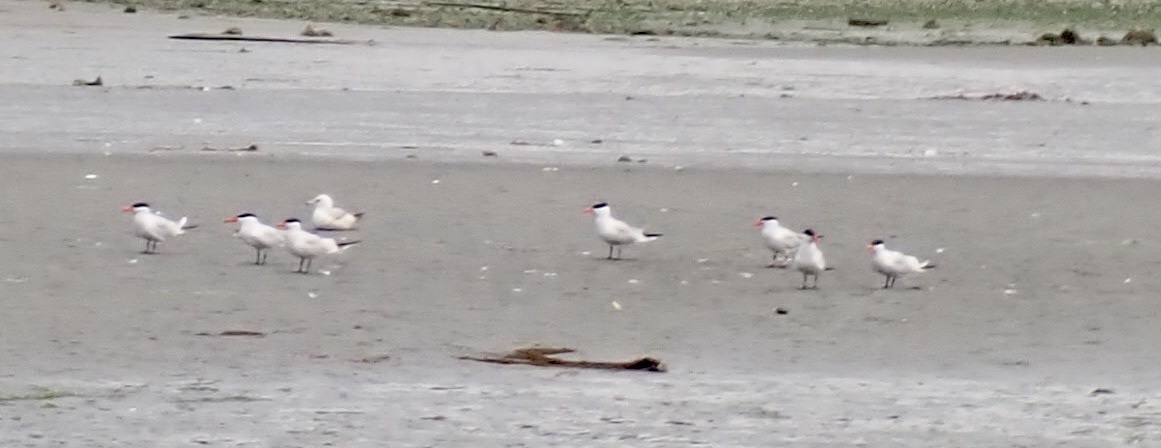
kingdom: Animalia
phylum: Chordata
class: Aves
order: Charadriiformes
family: Laridae
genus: Hydroprogne
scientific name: Hydroprogne caspia
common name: Caspian tern
